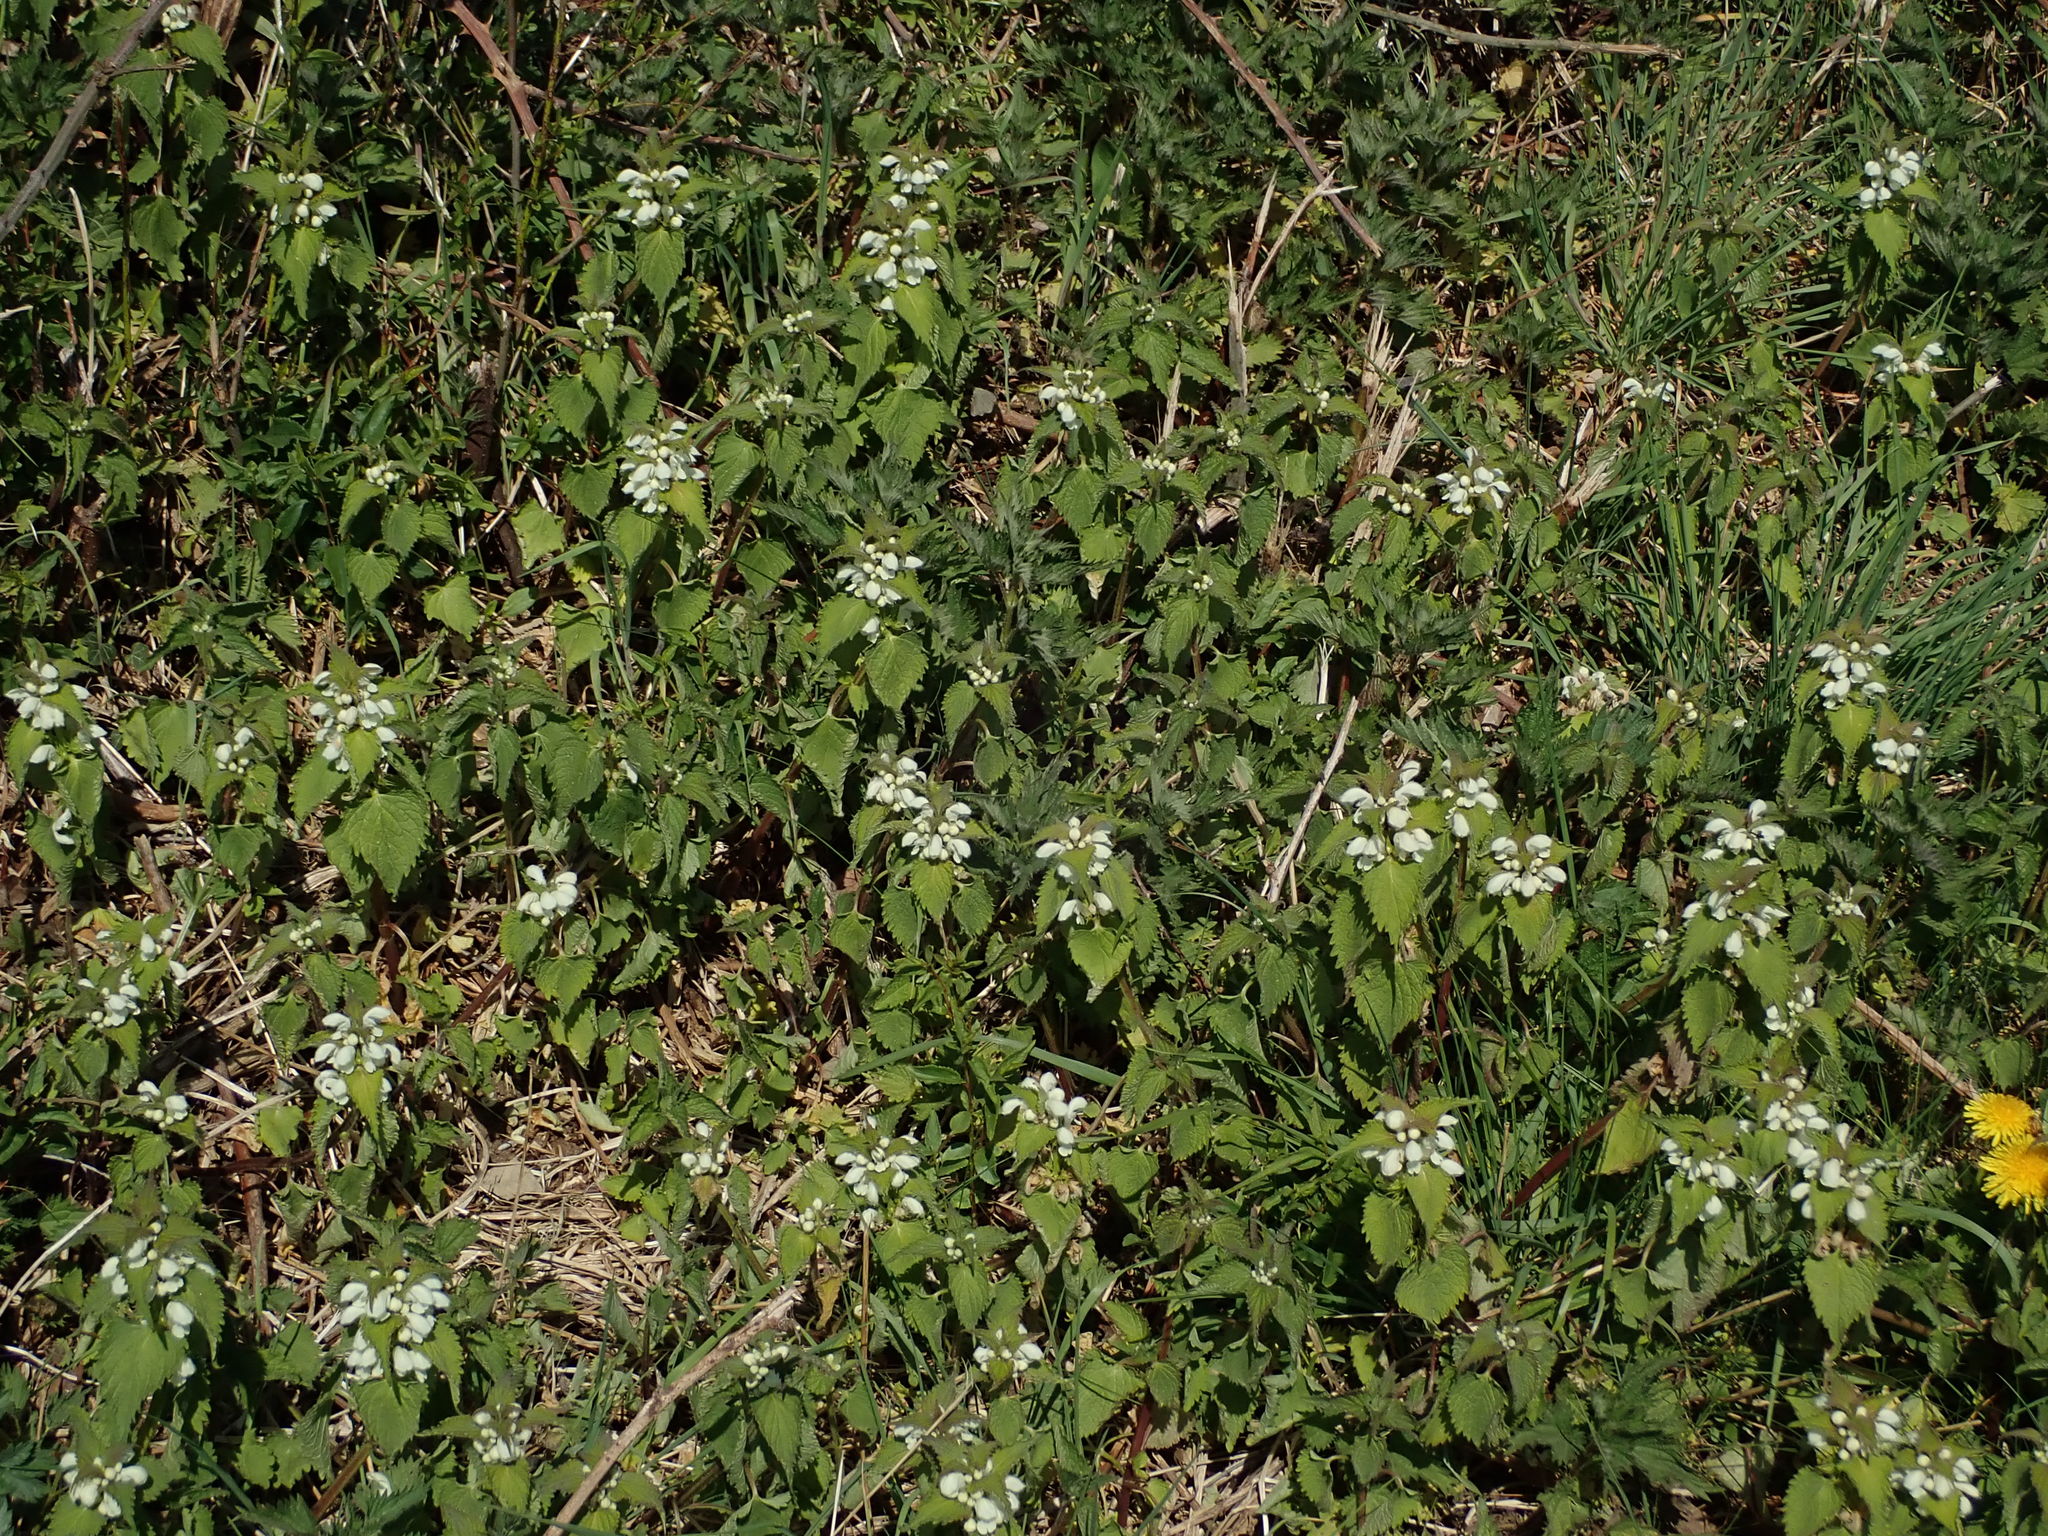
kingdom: Plantae
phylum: Tracheophyta
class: Magnoliopsida
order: Lamiales
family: Lamiaceae
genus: Lamium
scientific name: Lamium album
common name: White dead-nettle
